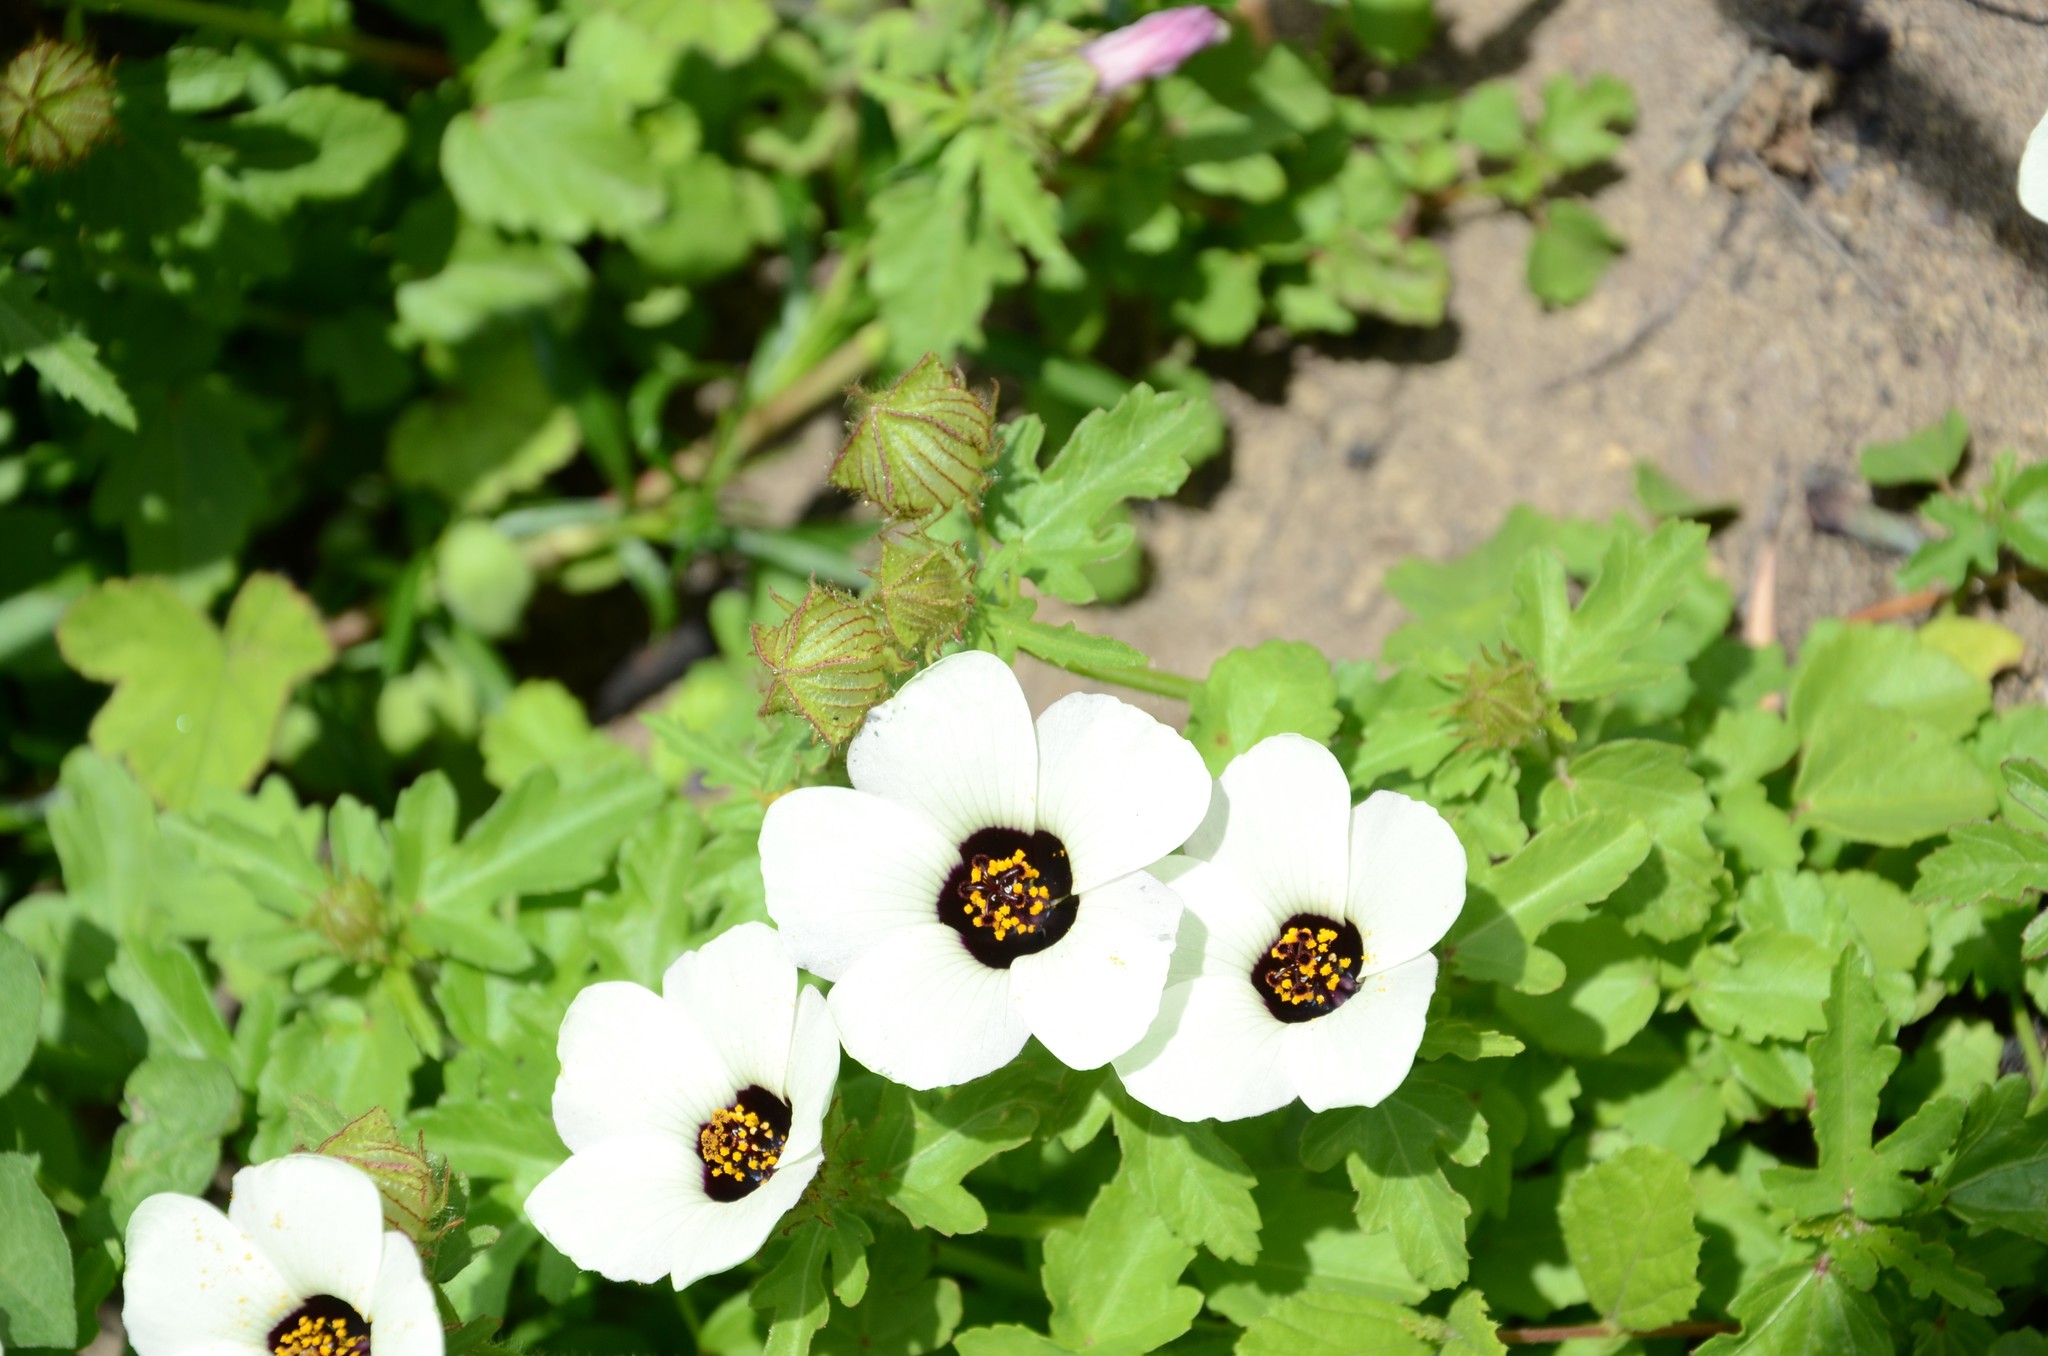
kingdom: Plantae
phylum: Tracheophyta
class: Magnoliopsida
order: Malvales
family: Malvaceae
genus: Hibiscus
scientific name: Hibiscus trionum
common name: Bladder ketmia
